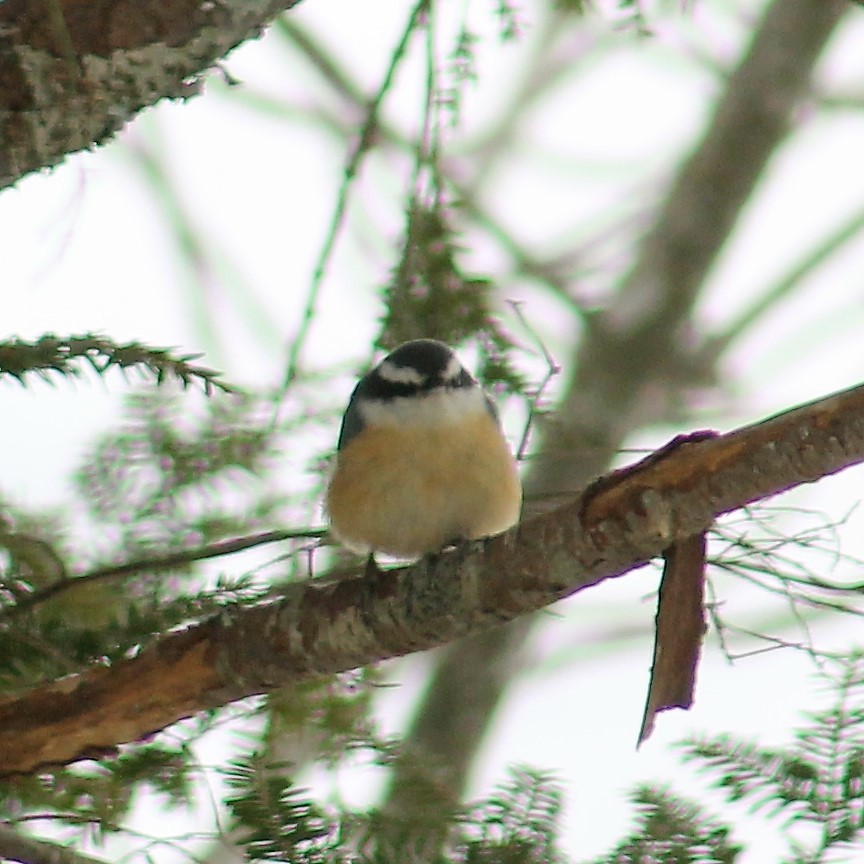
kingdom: Animalia
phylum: Chordata
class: Aves
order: Passeriformes
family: Sittidae
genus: Sitta
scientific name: Sitta canadensis
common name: Red-breasted nuthatch
